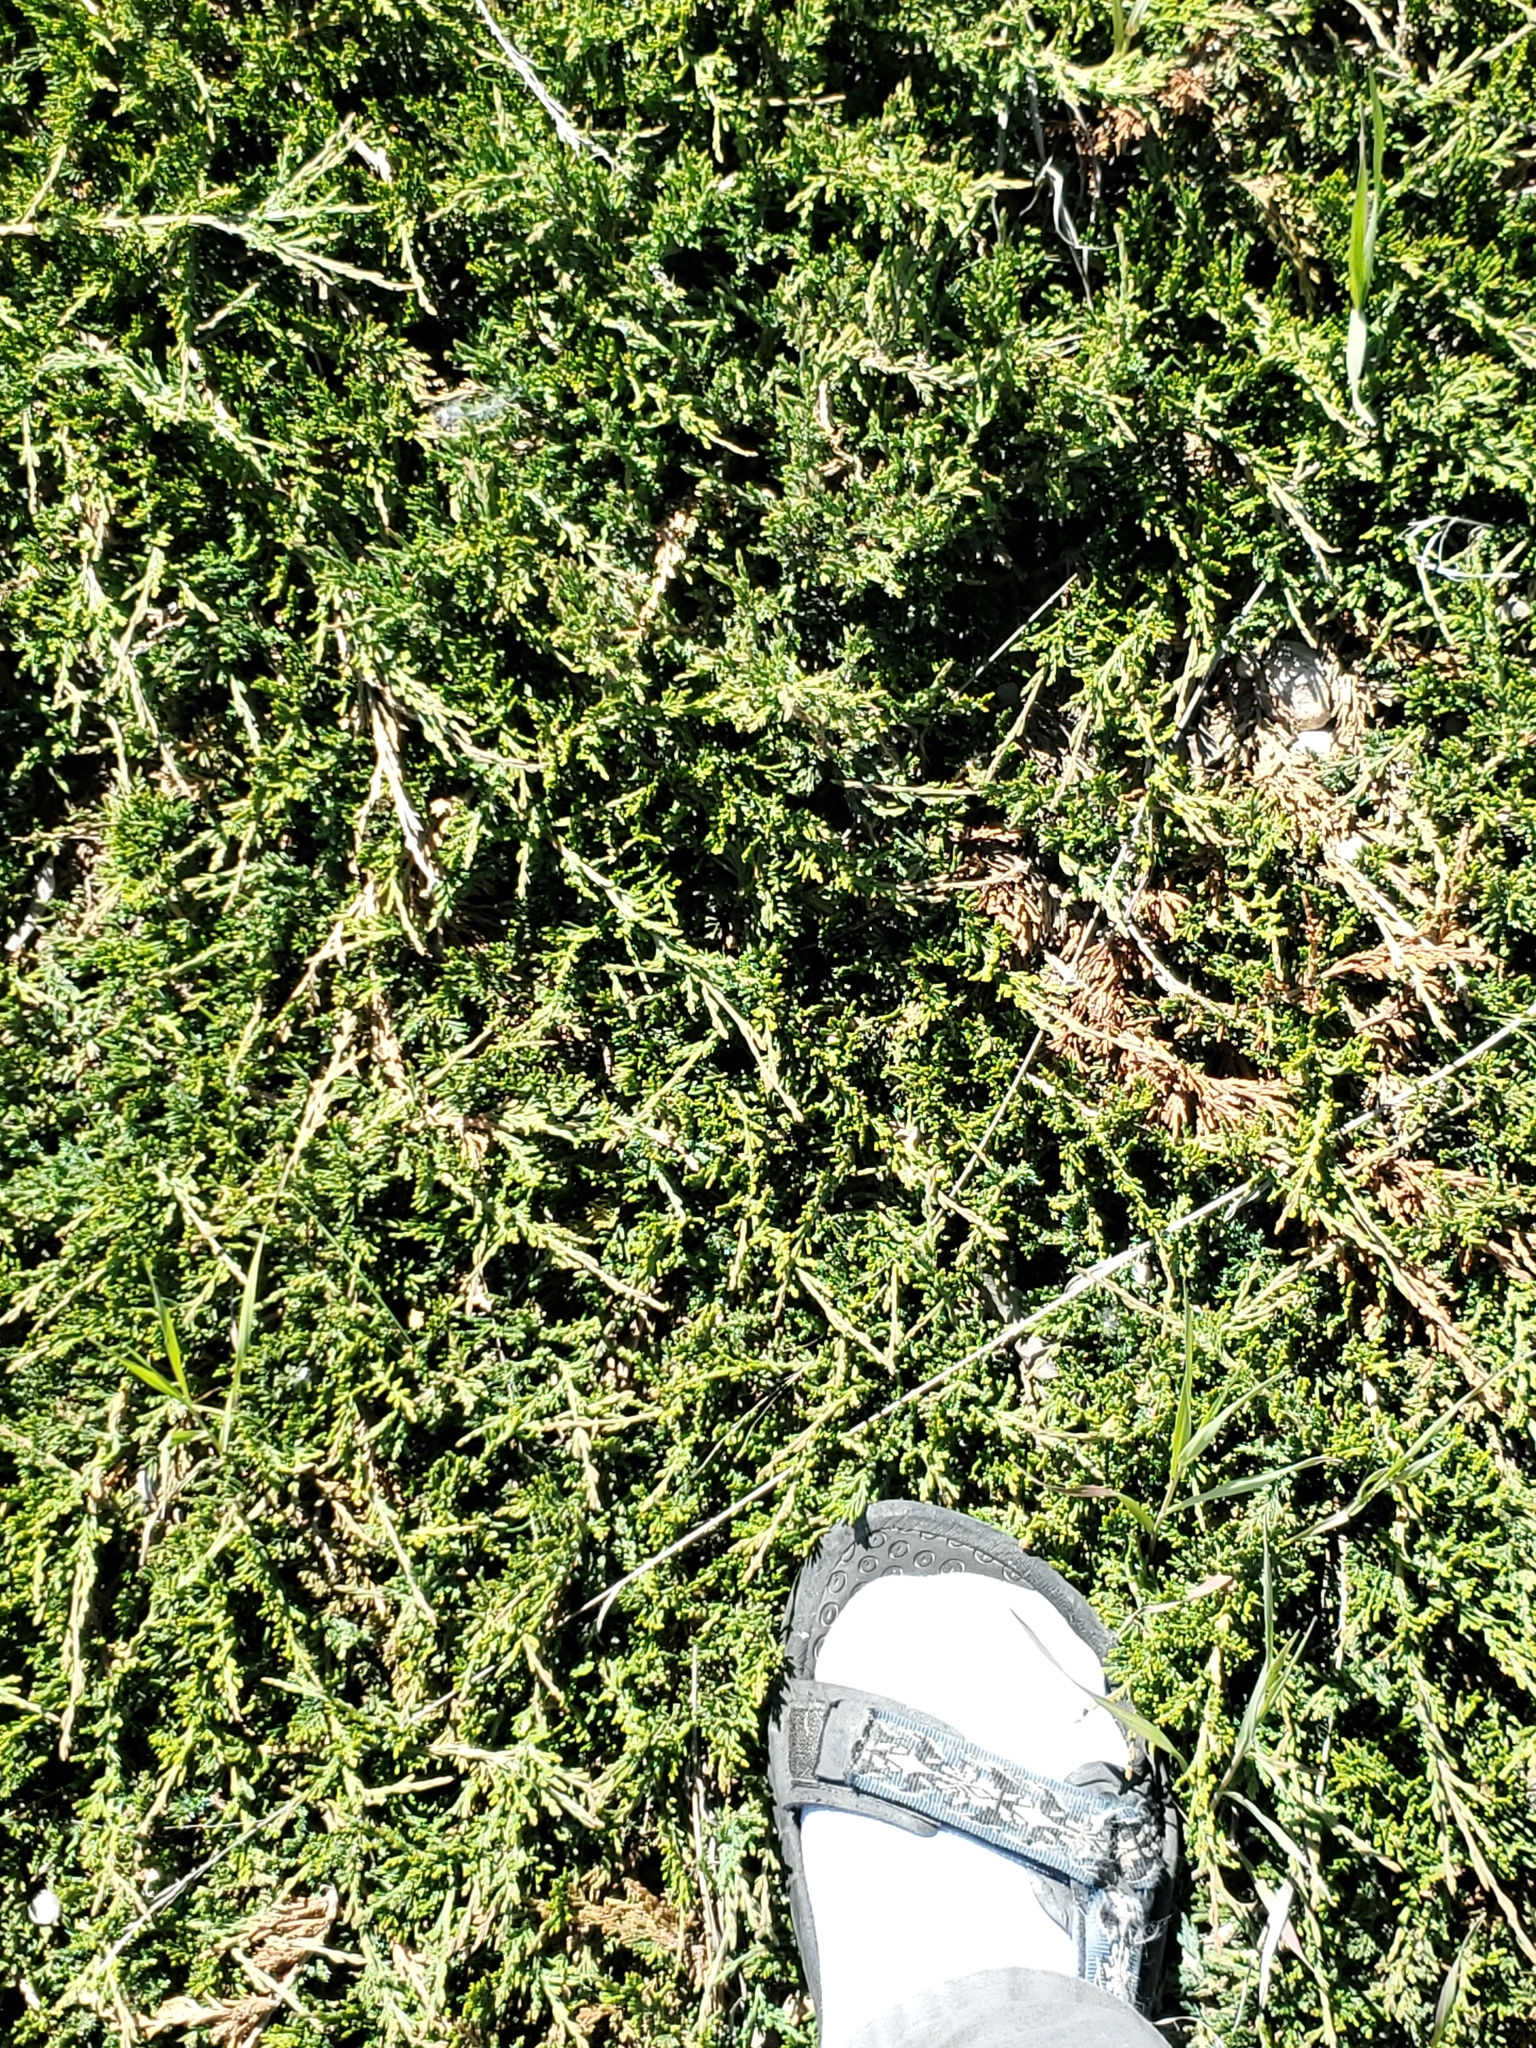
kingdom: Plantae
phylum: Tracheophyta
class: Pinopsida
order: Pinales
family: Cupressaceae
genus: Juniperus
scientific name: Juniperus horizontalis
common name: Creeping juniper
